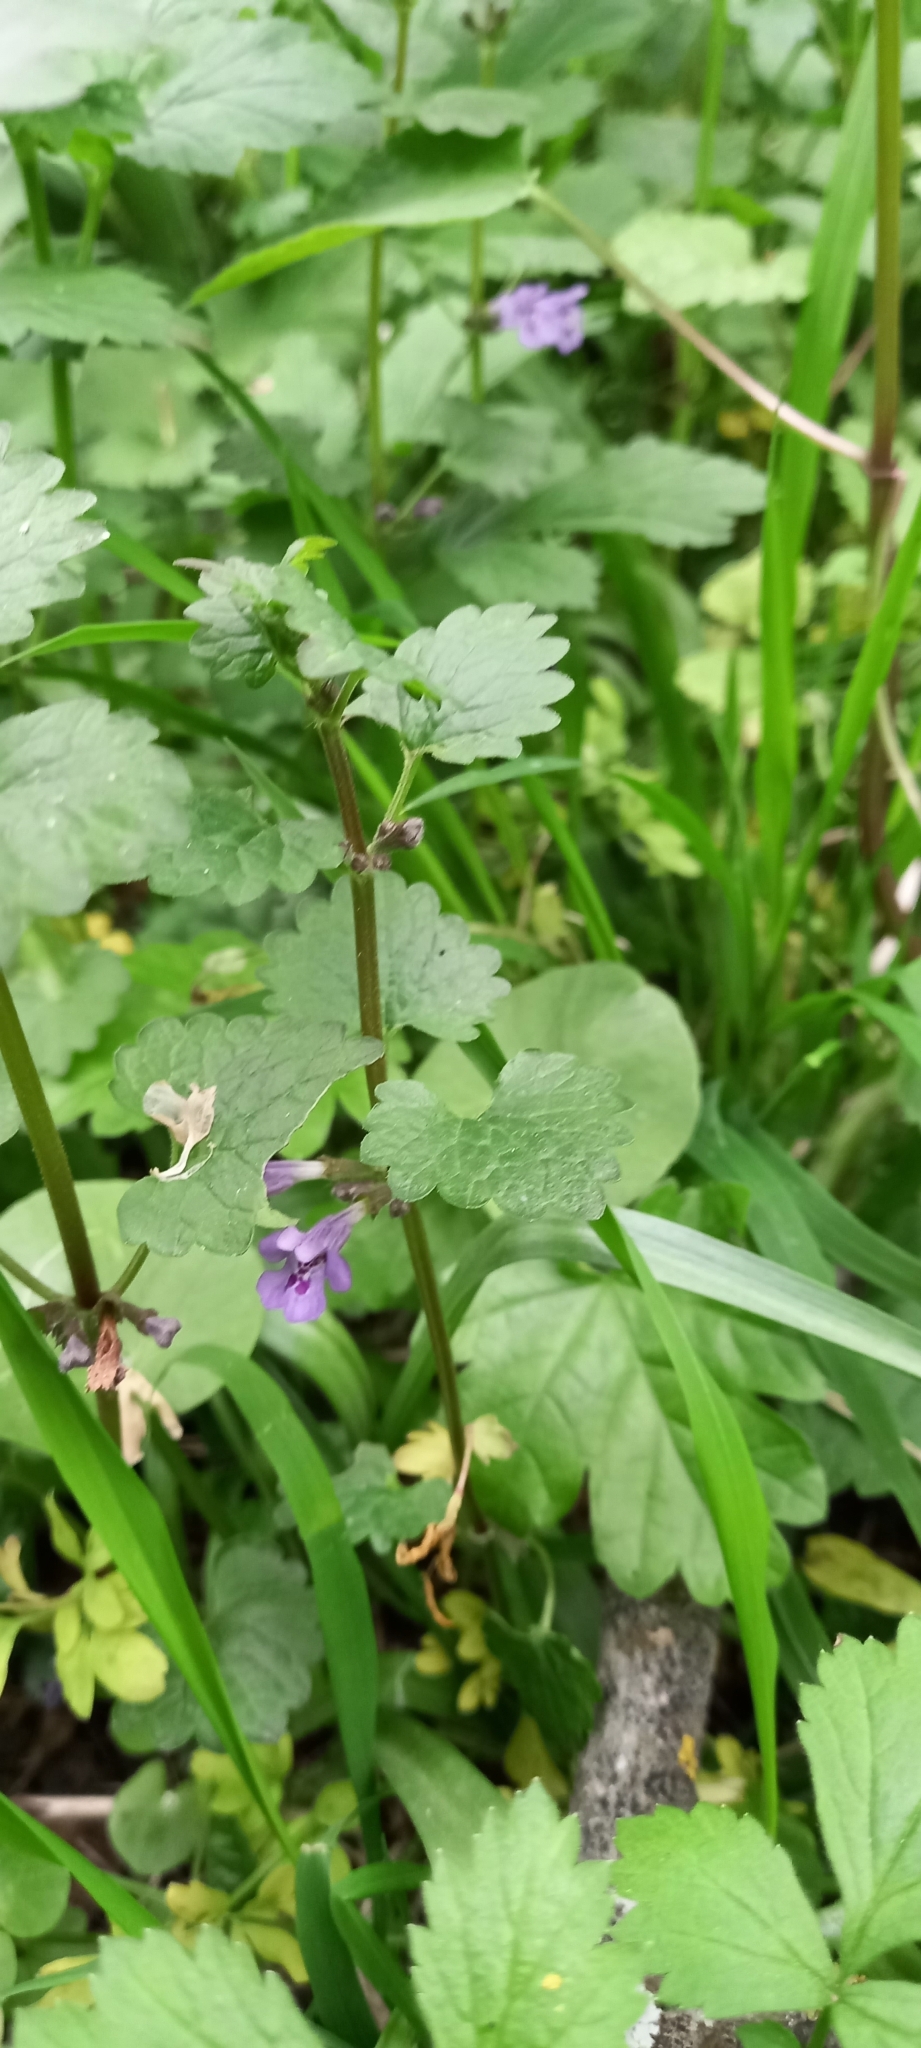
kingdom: Plantae
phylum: Tracheophyta
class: Magnoliopsida
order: Lamiales
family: Lamiaceae
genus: Glechoma
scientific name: Glechoma hederacea
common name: Ground ivy
